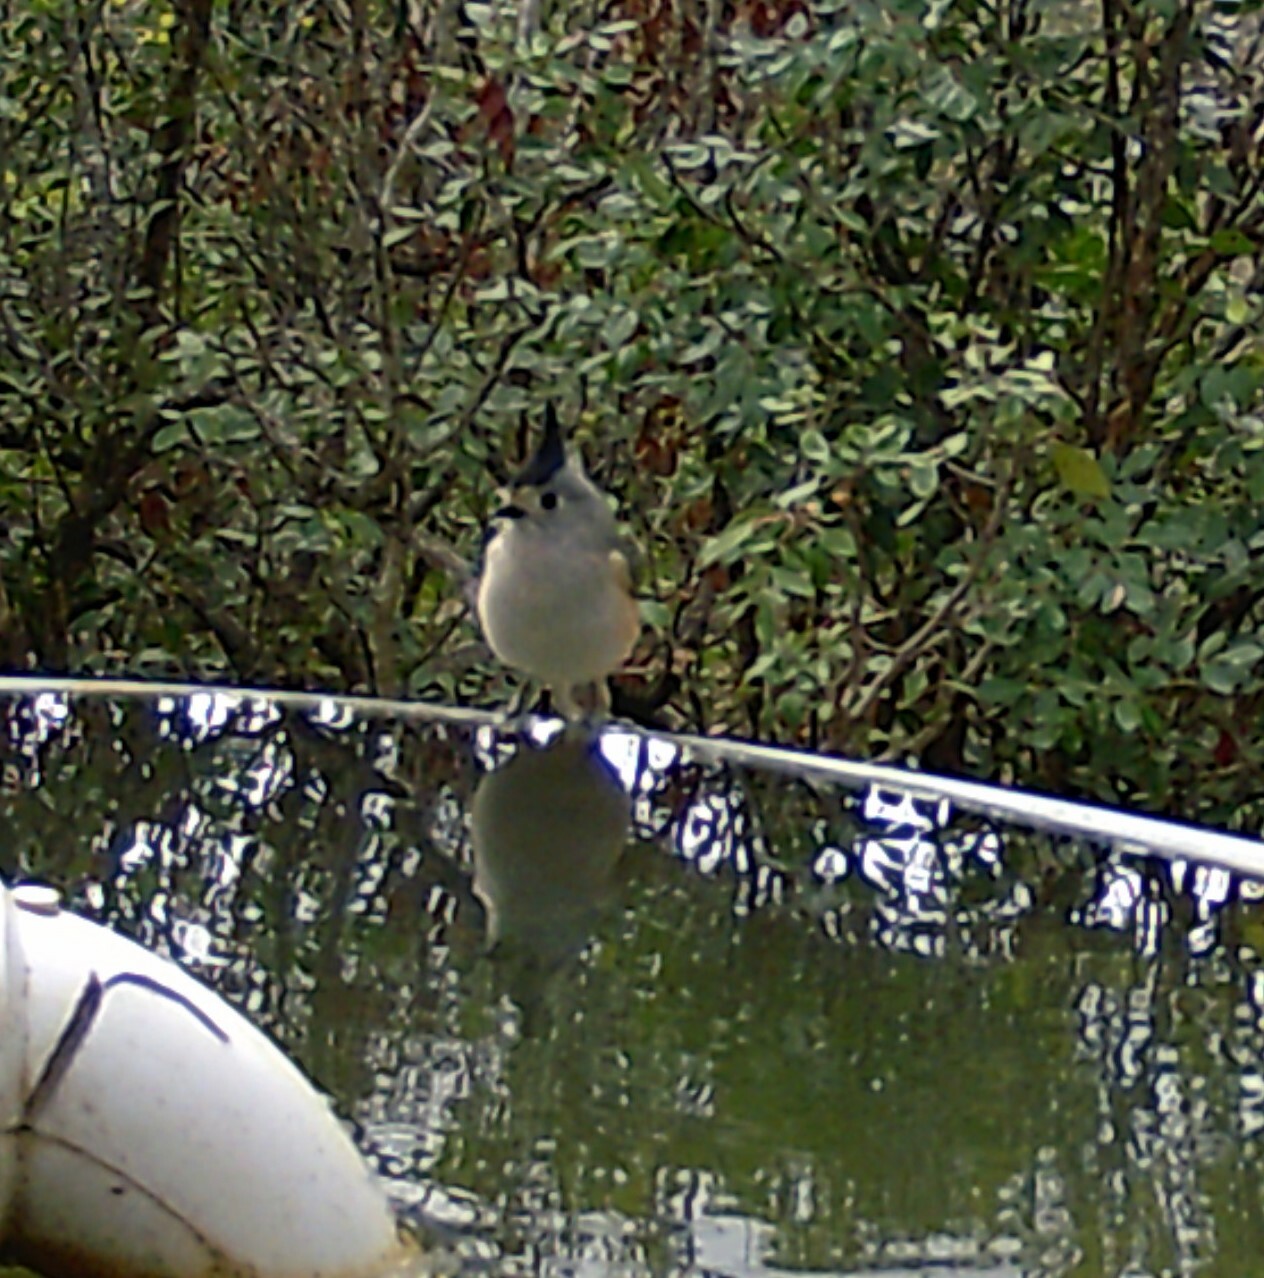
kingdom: Animalia
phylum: Chordata
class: Aves
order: Passeriformes
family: Paridae
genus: Baeolophus
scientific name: Baeolophus atricristatus
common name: Black-crested titmouse
